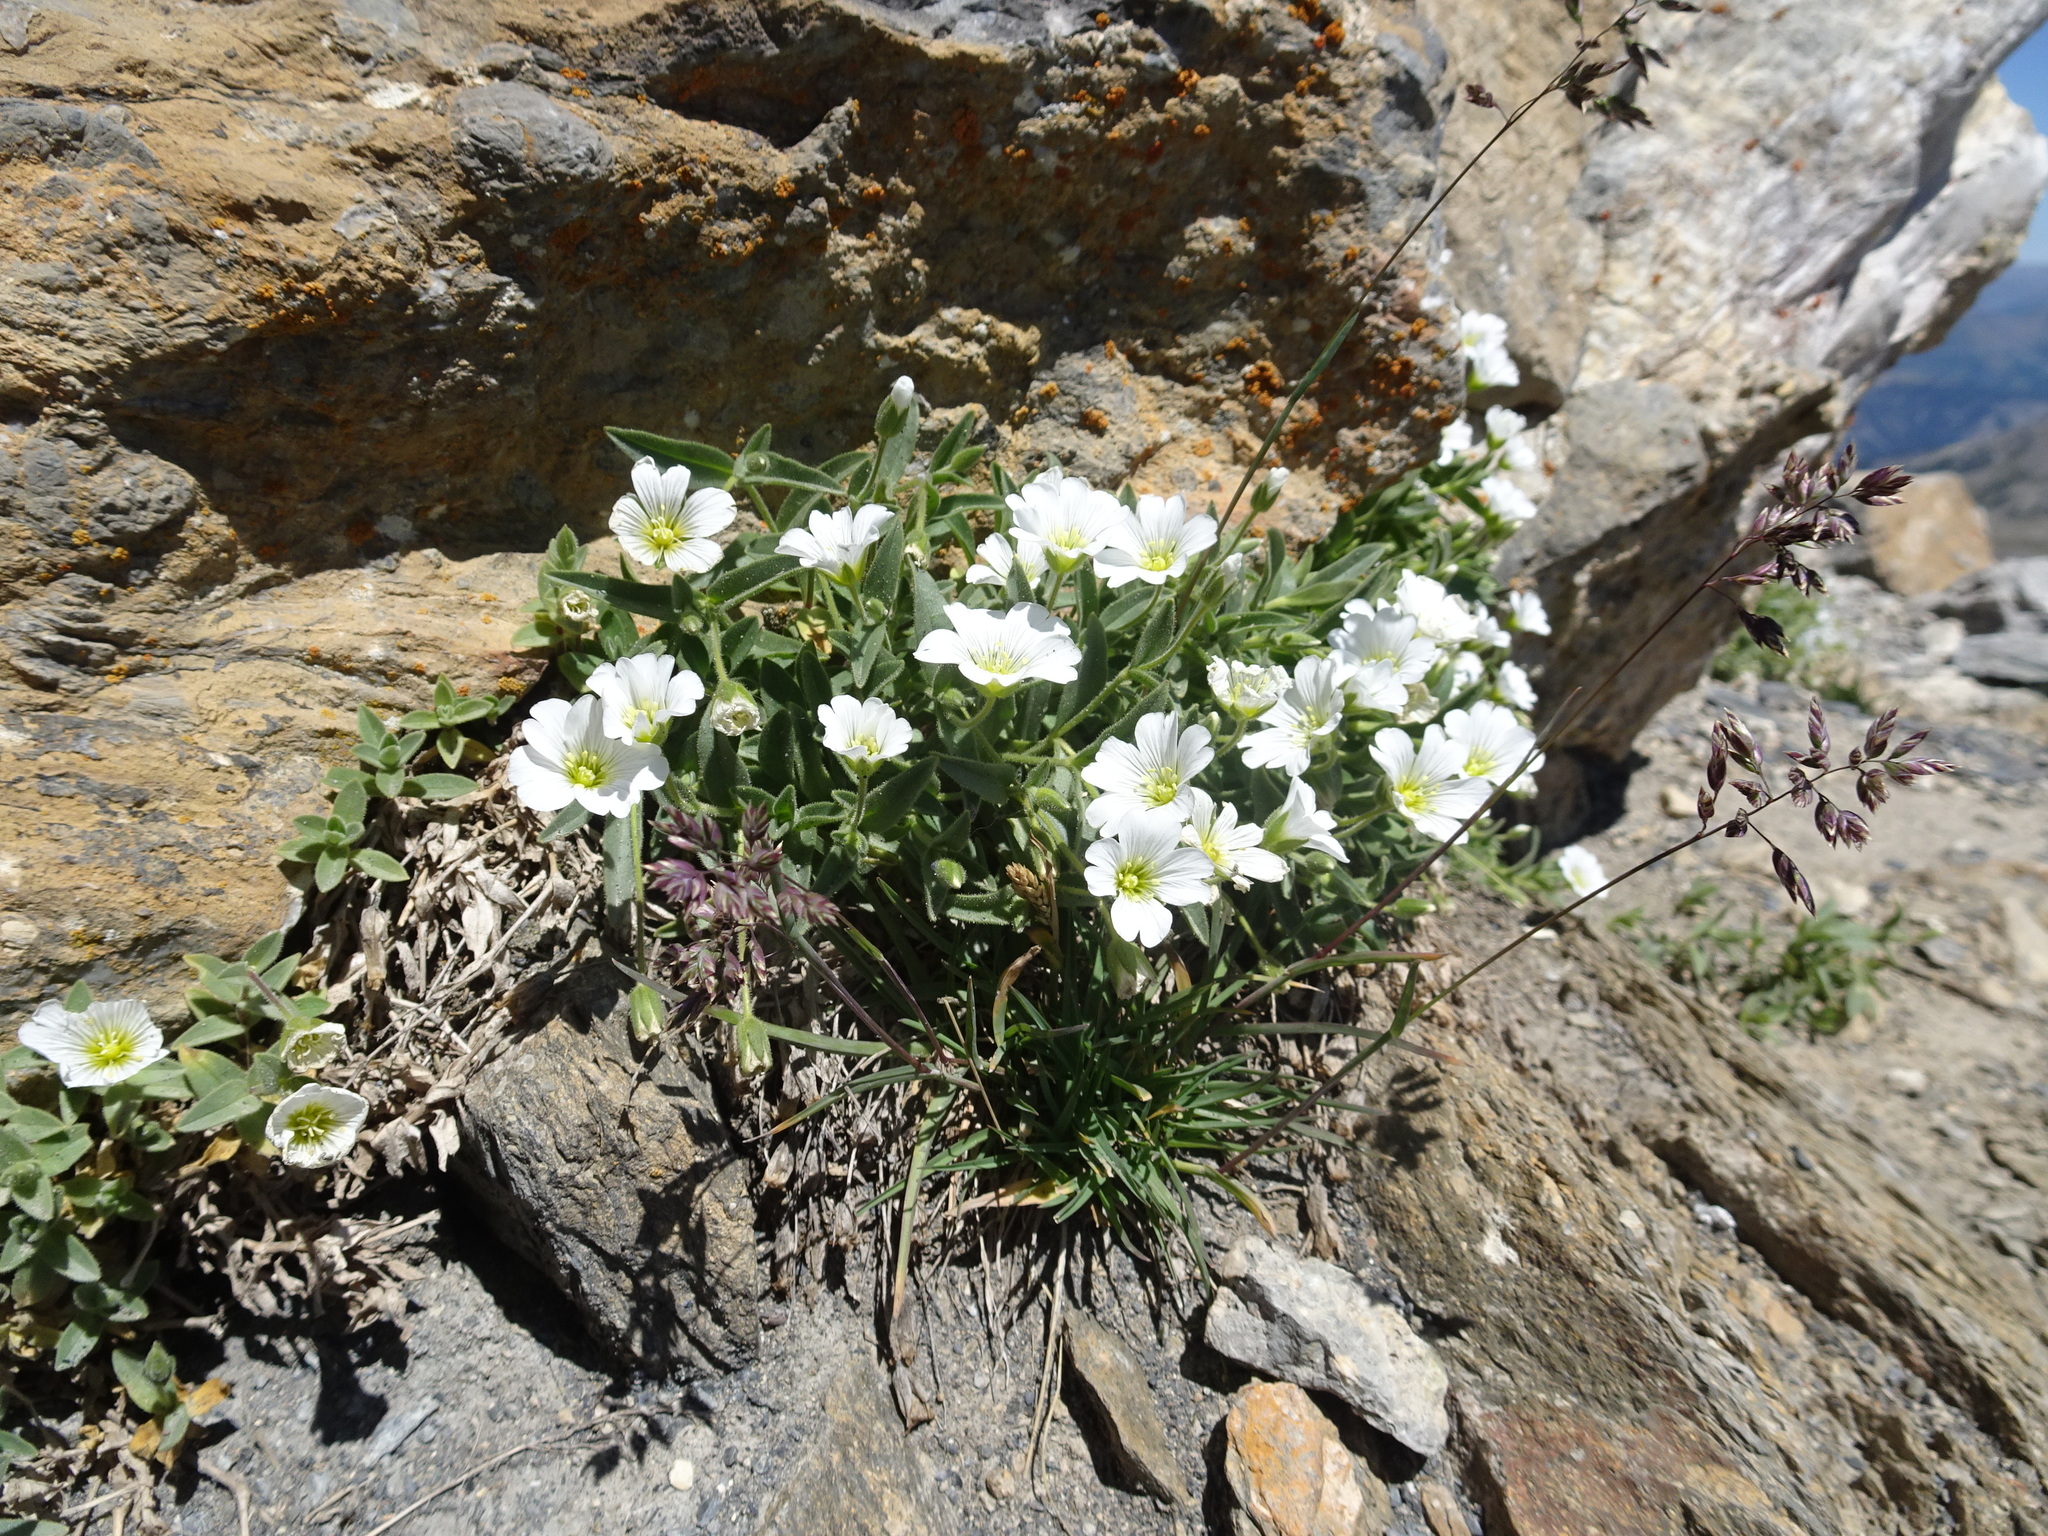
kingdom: Plantae
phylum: Tracheophyta
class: Magnoliopsida
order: Caryophyllales
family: Caryophyllaceae
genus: Cerastium
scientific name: Cerastium alpinum
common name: Alpine mouse-ear
